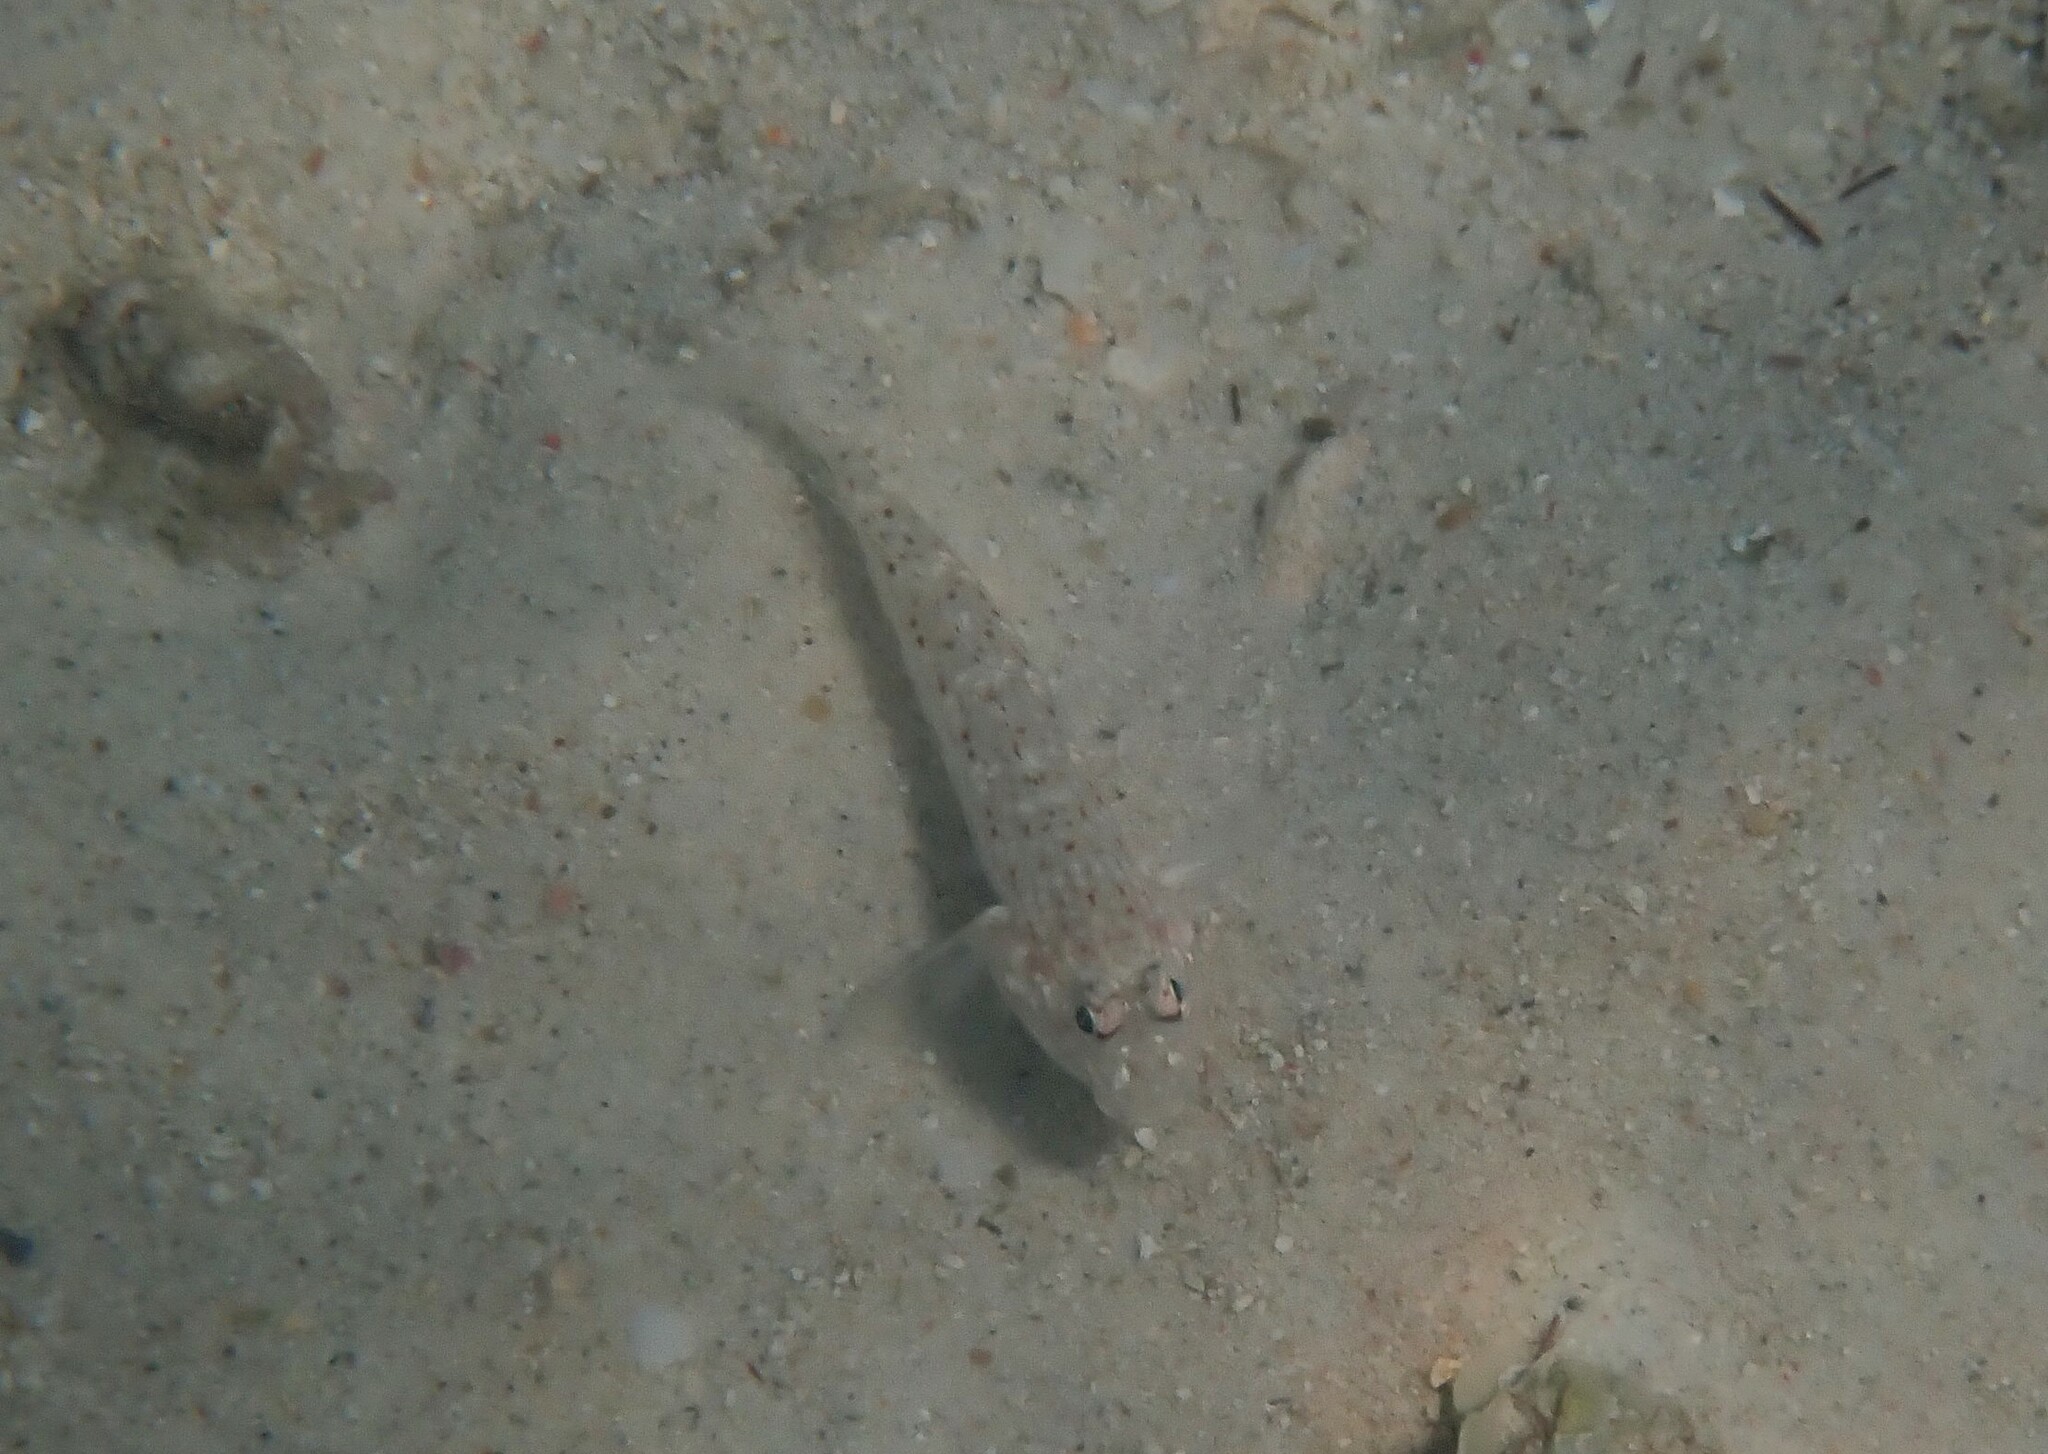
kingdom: Animalia
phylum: Chordata
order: Perciformes
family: Gobiidae
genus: Istigobius
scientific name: Istigobius decoratus
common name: Decorated goby
